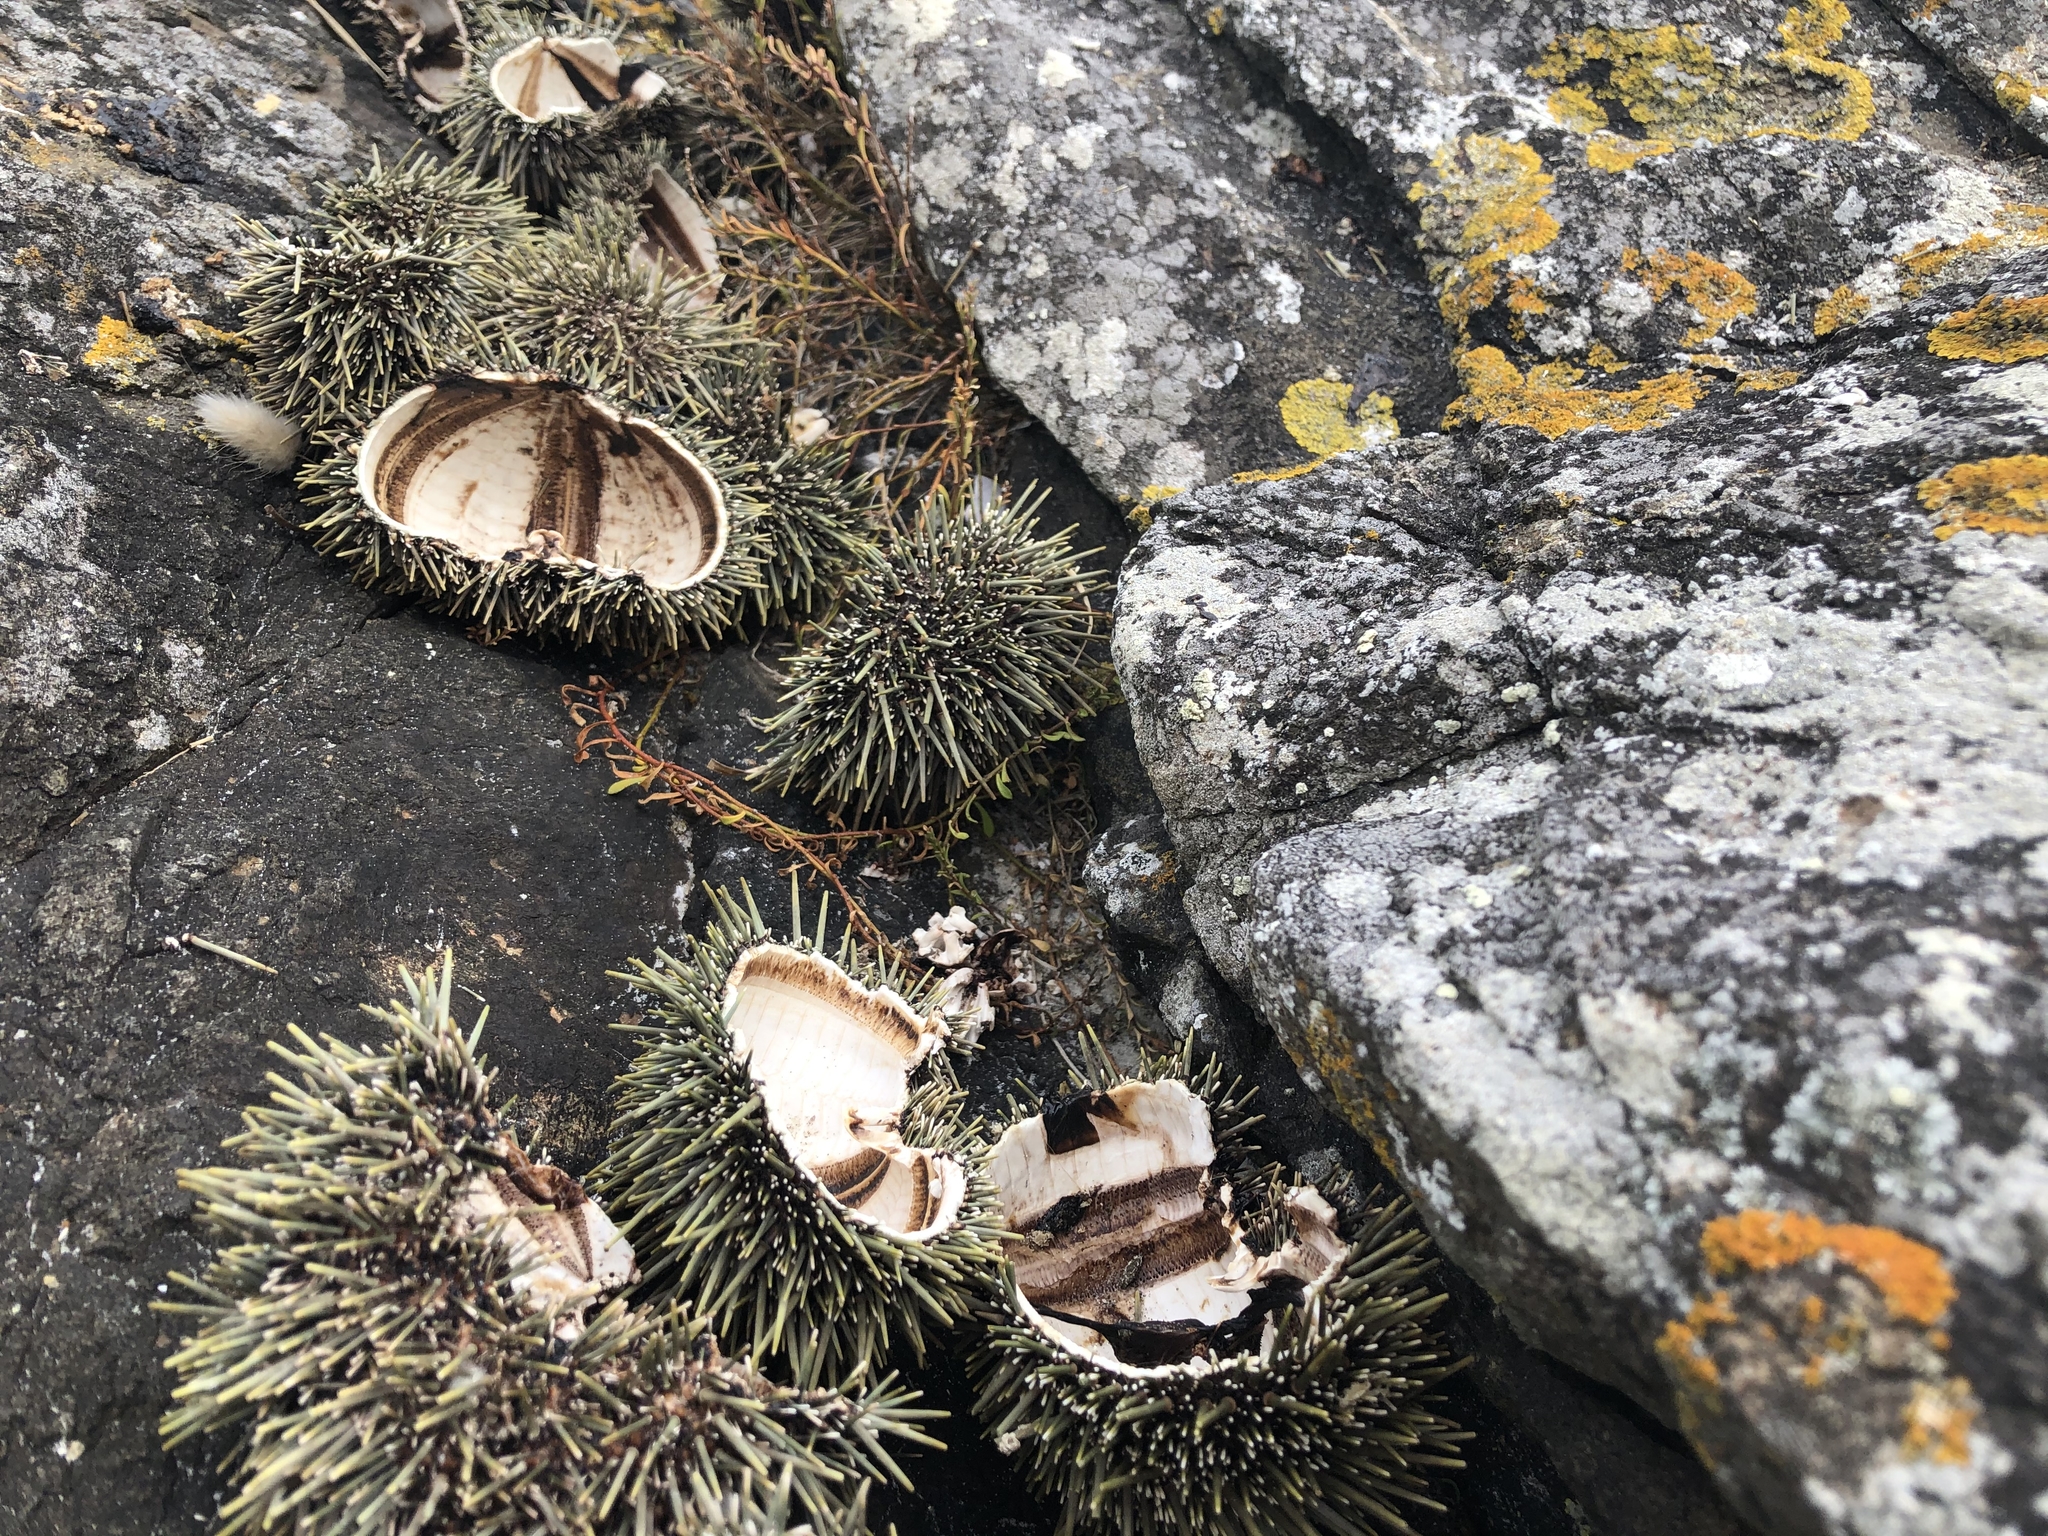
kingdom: Animalia
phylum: Echinodermata
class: Echinoidea
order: Camarodonta
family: Echinometridae
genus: Evechinus
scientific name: Evechinus chloroticus
